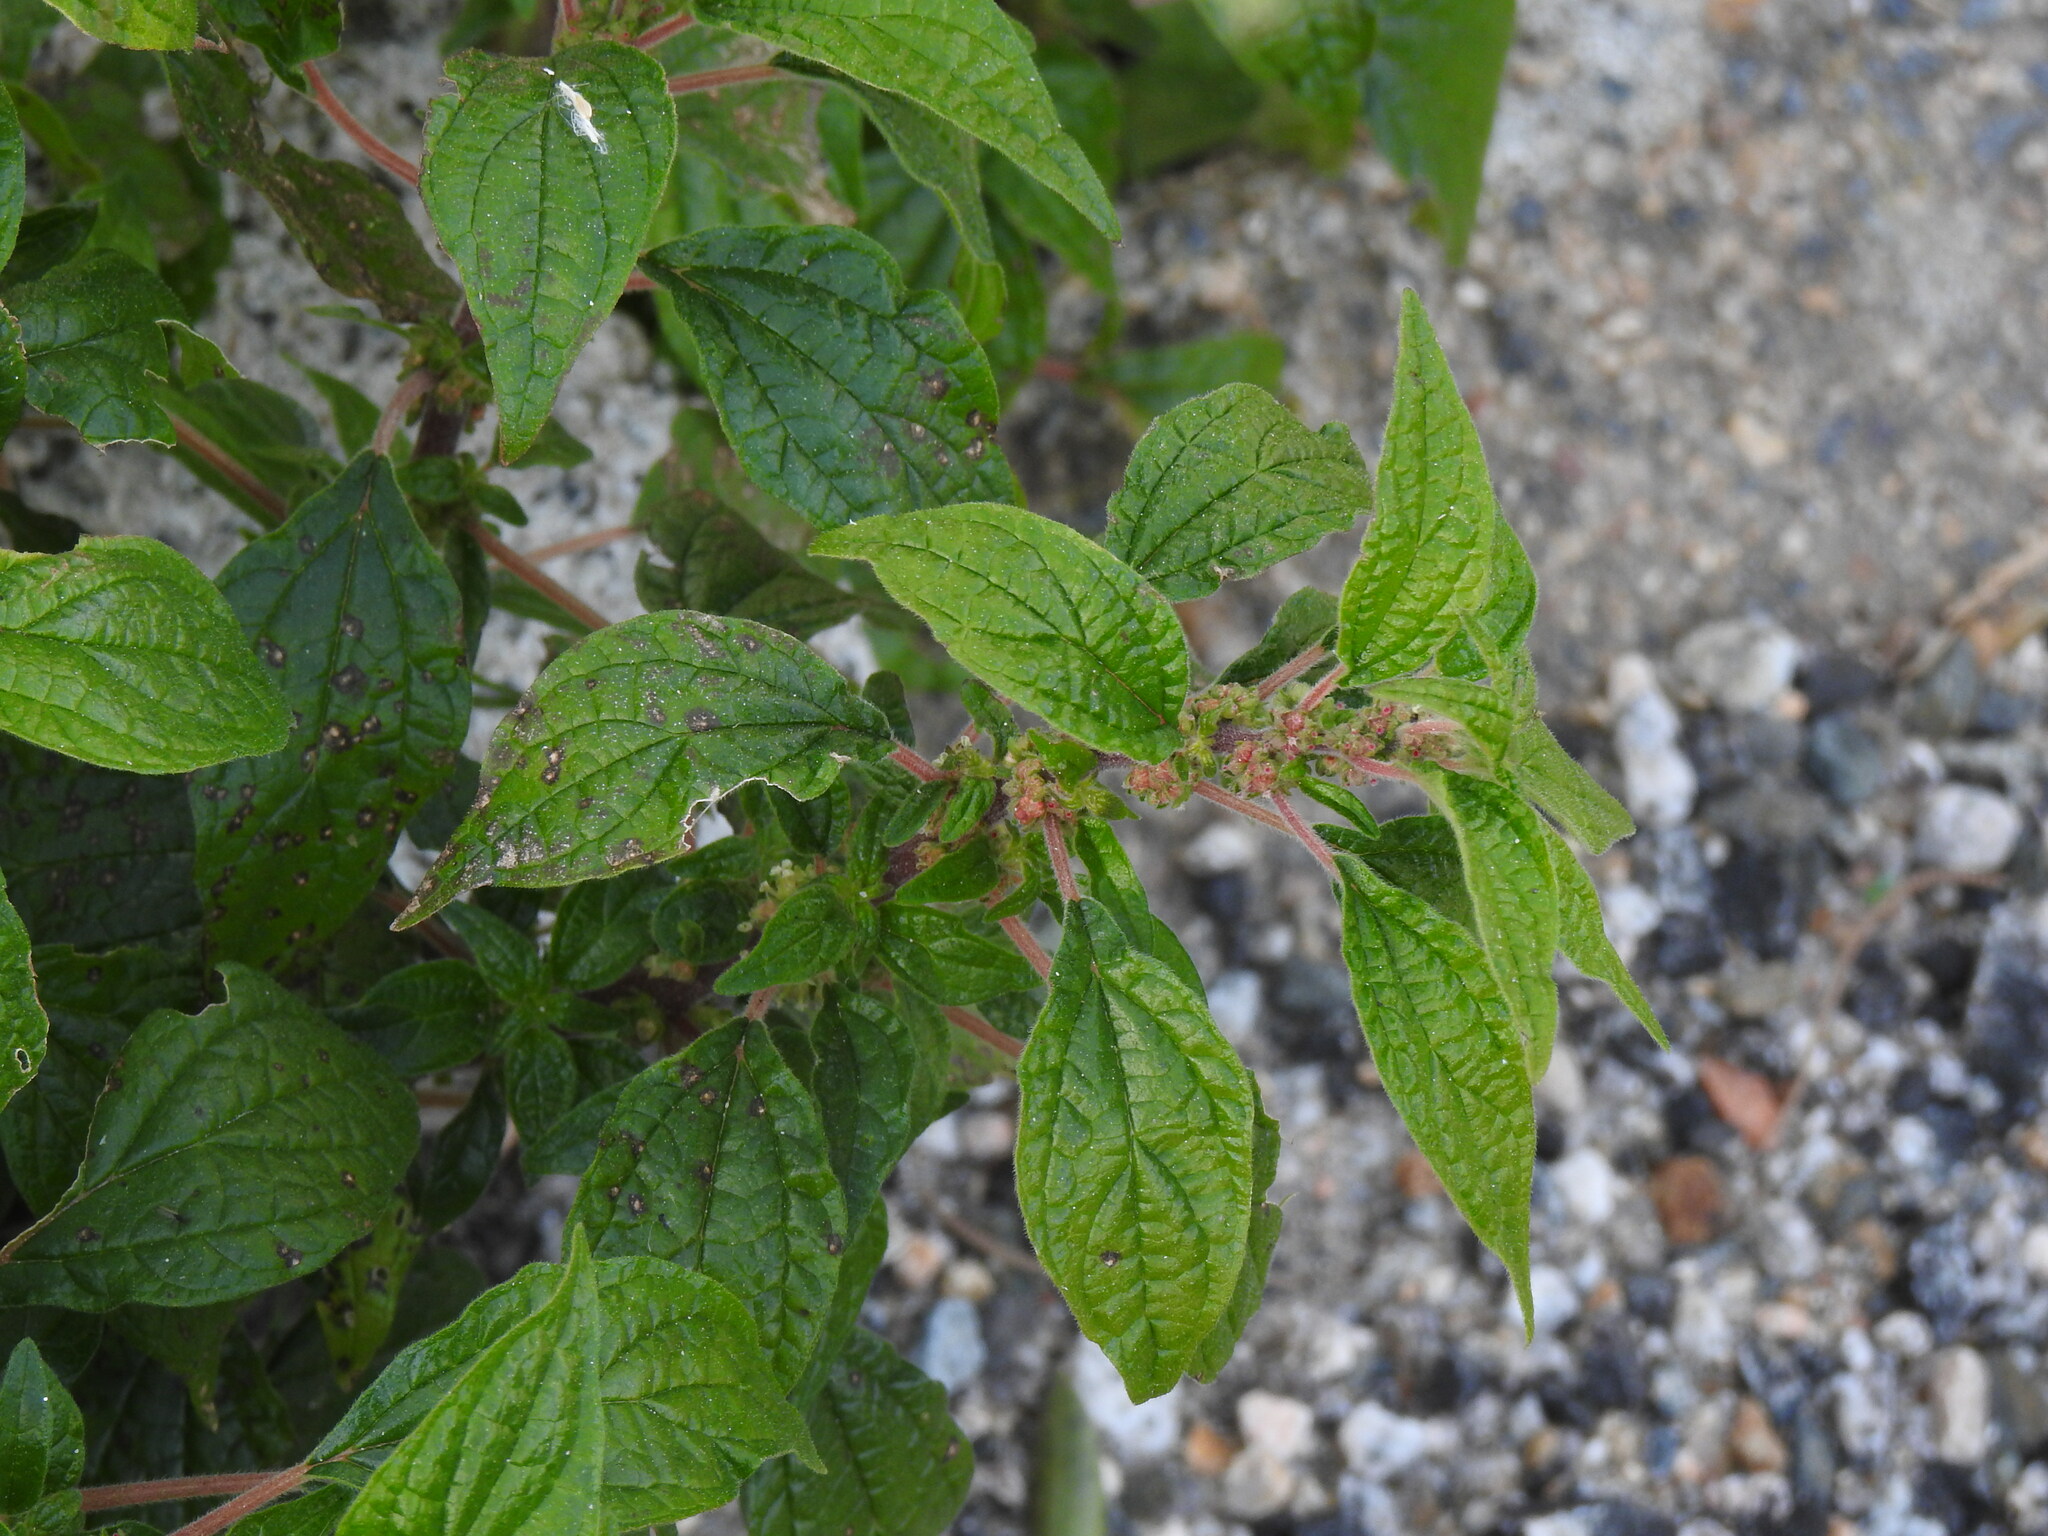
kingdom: Plantae
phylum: Tracheophyta
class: Magnoliopsida
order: Rosales
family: Urticaceae
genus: Parietaria
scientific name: Parietaria judaica
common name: Pellitory-of-the-wall
